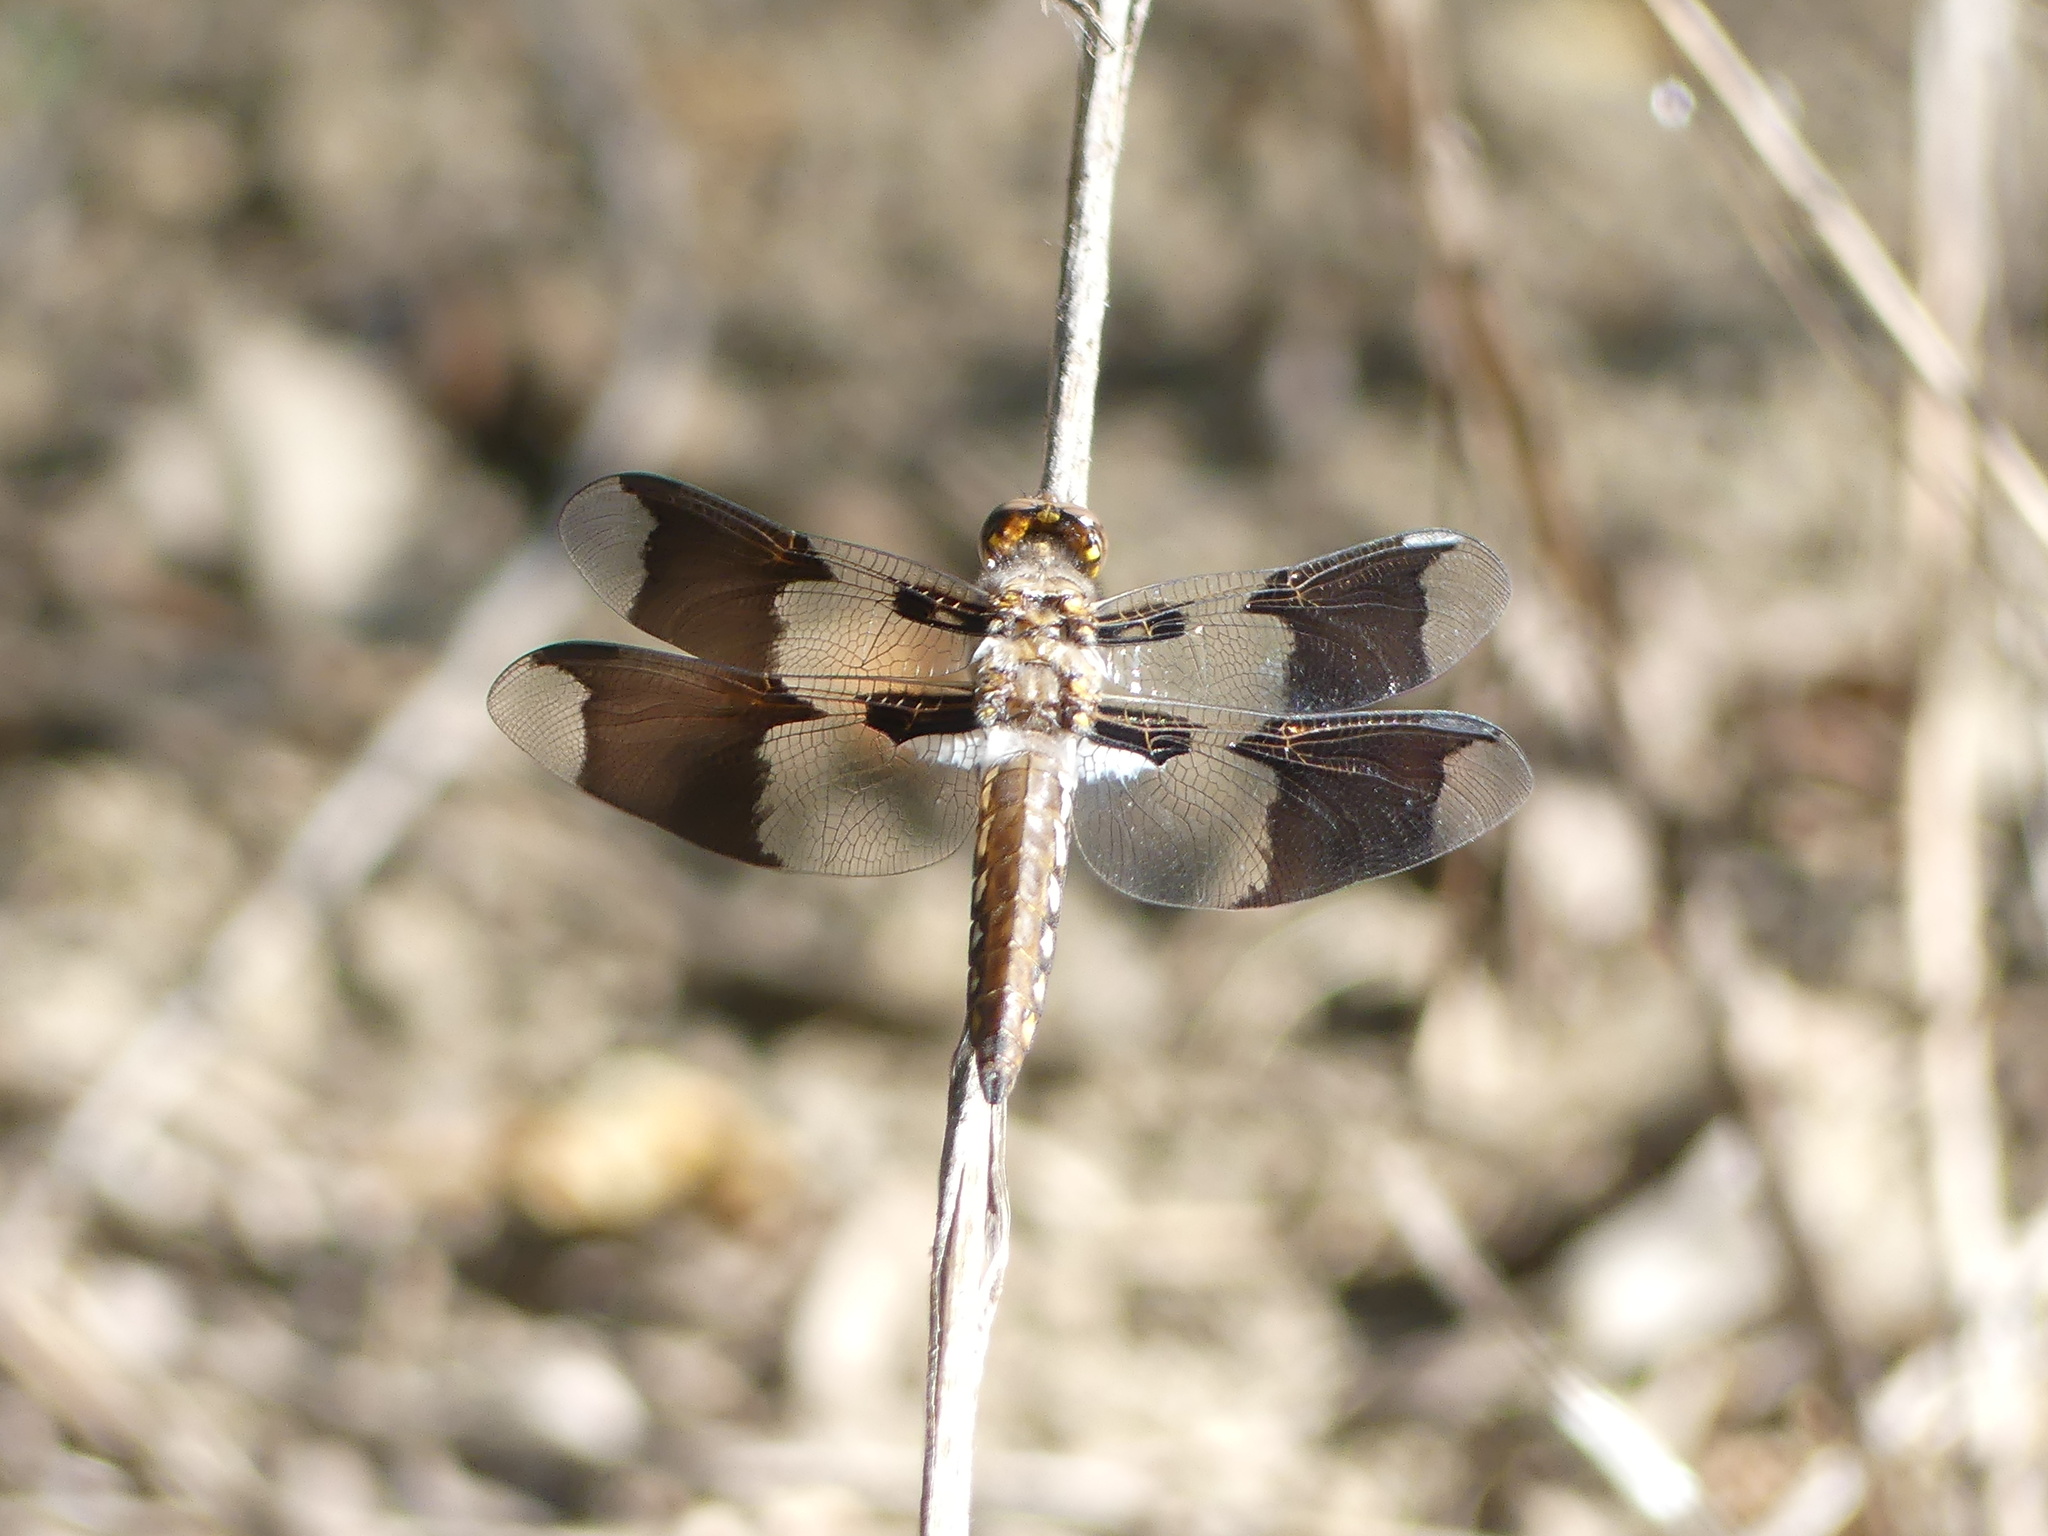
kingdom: Animalia
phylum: Arthropoda
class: Insecta
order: Odonata
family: Libellulidae
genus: Plathemis
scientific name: Plathemis lydia
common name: Common whitetail
